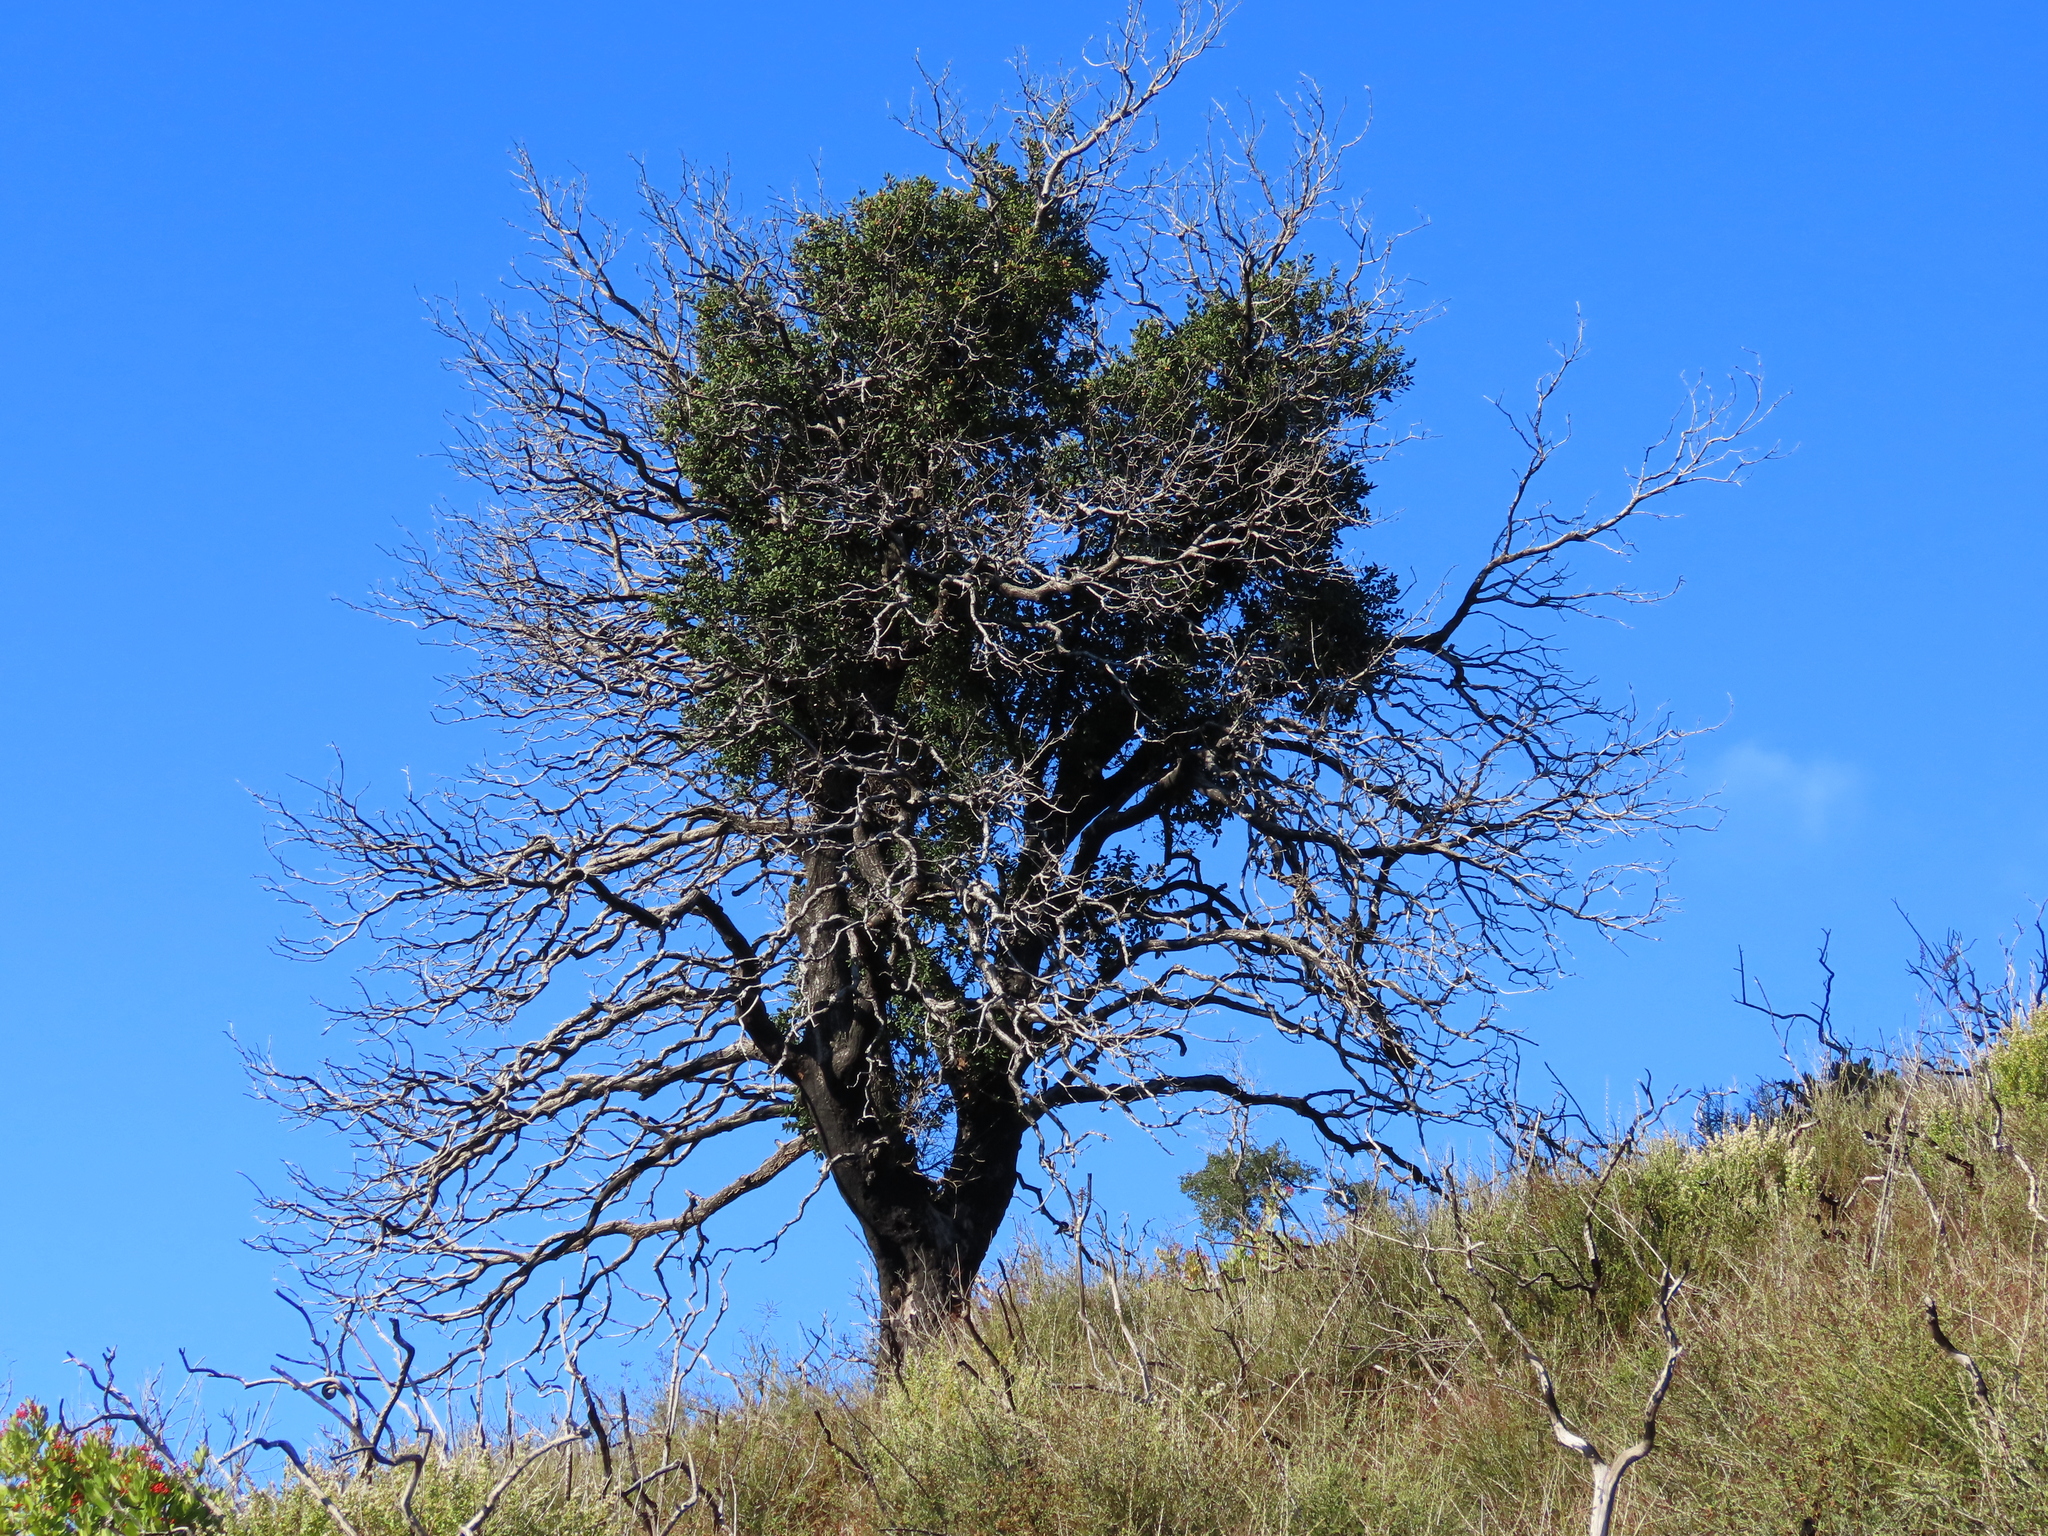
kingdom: Plantae
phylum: Tracheophyta
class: Magnoliopsida
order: Fagales
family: Fagaceae
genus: Quercus
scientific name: Quercus agrifolia
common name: California live oak
